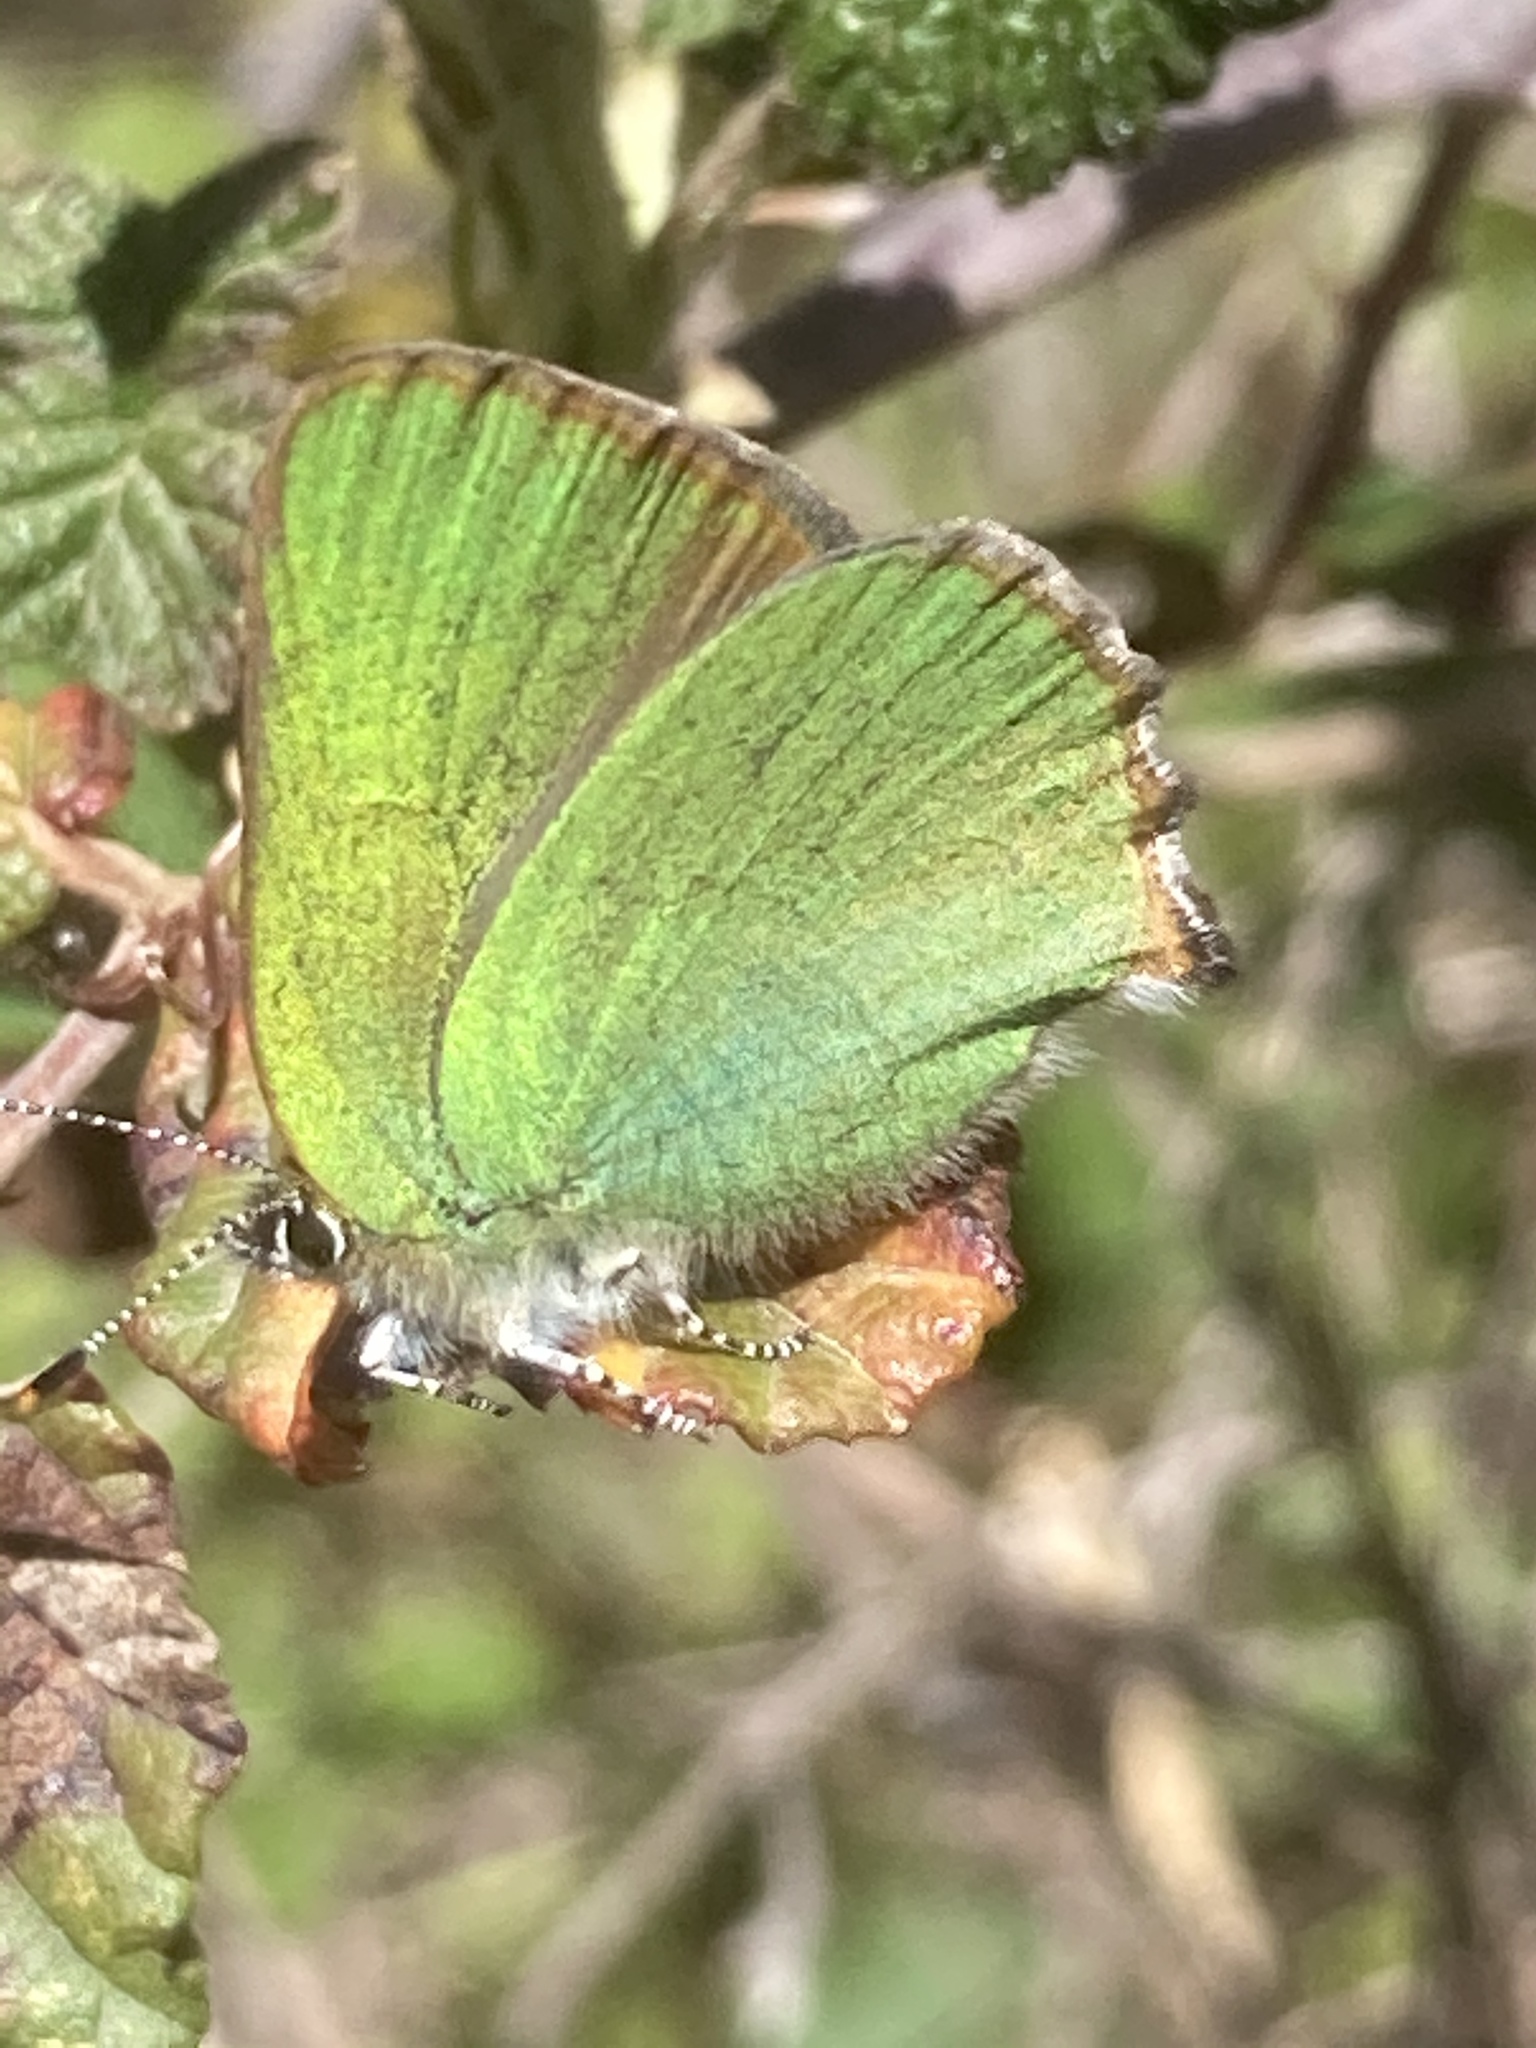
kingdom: Animalia
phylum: Arthropoda
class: Insecta
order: Lepidoptera
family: Lycaenidae
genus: Callophrys
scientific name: Callophrys rubi
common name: Green hairstreak
